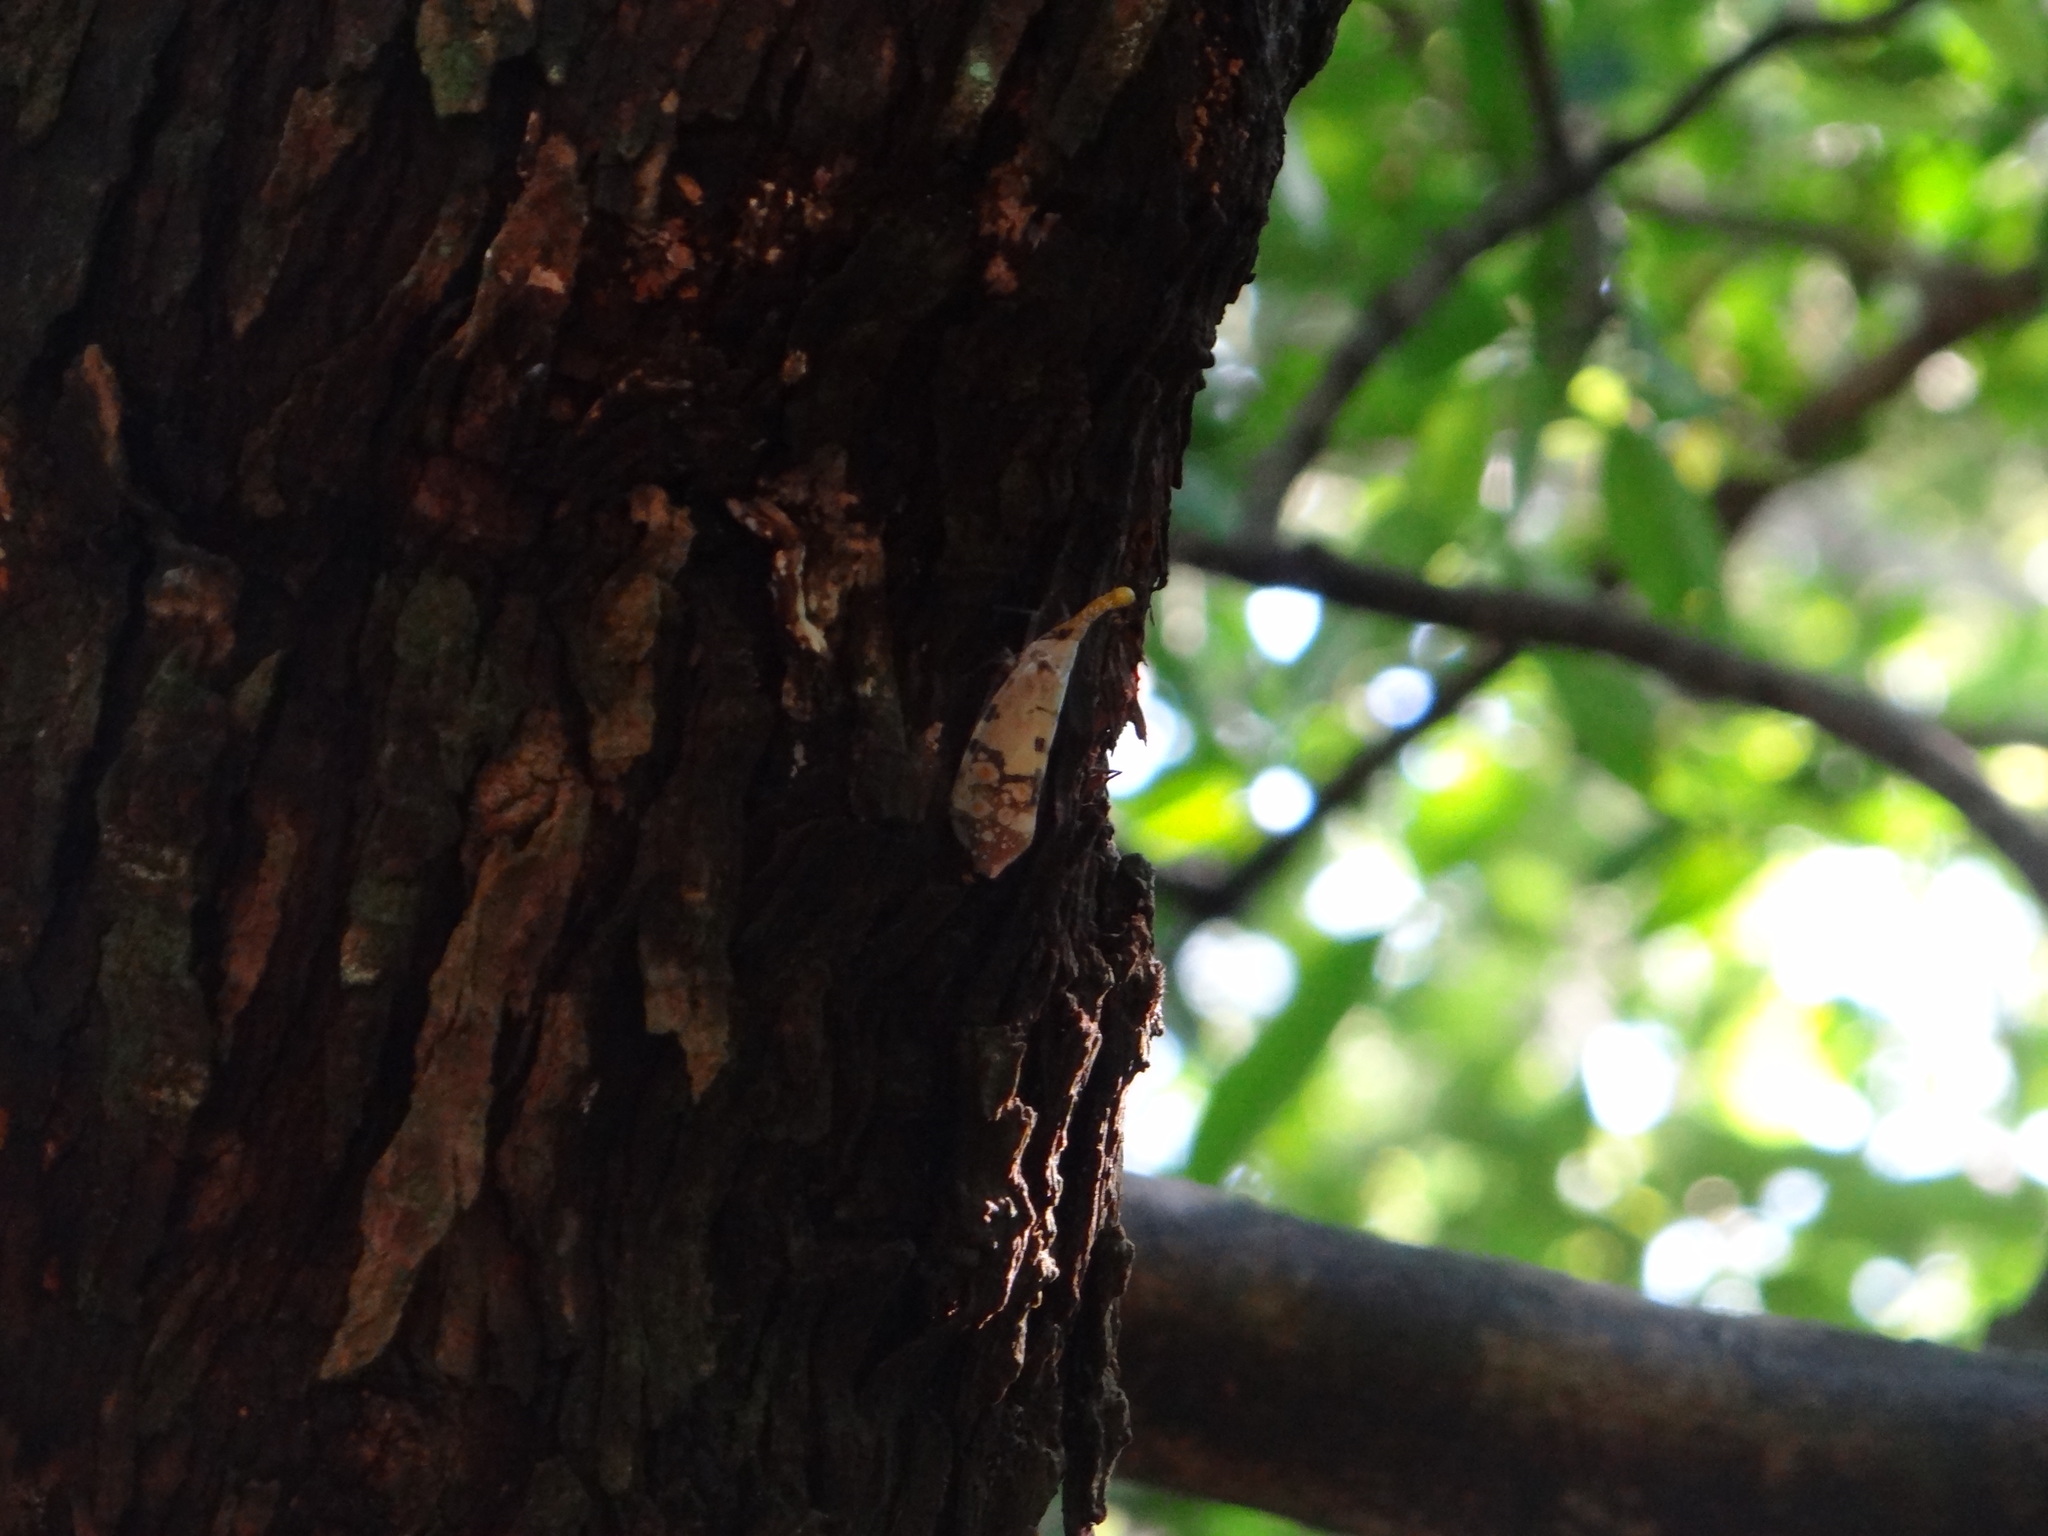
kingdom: Animalia
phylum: Arthropoda
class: Insecta
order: Hemiptera
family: Fulgoridae
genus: Pyrops
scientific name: Pyrops watanabei
